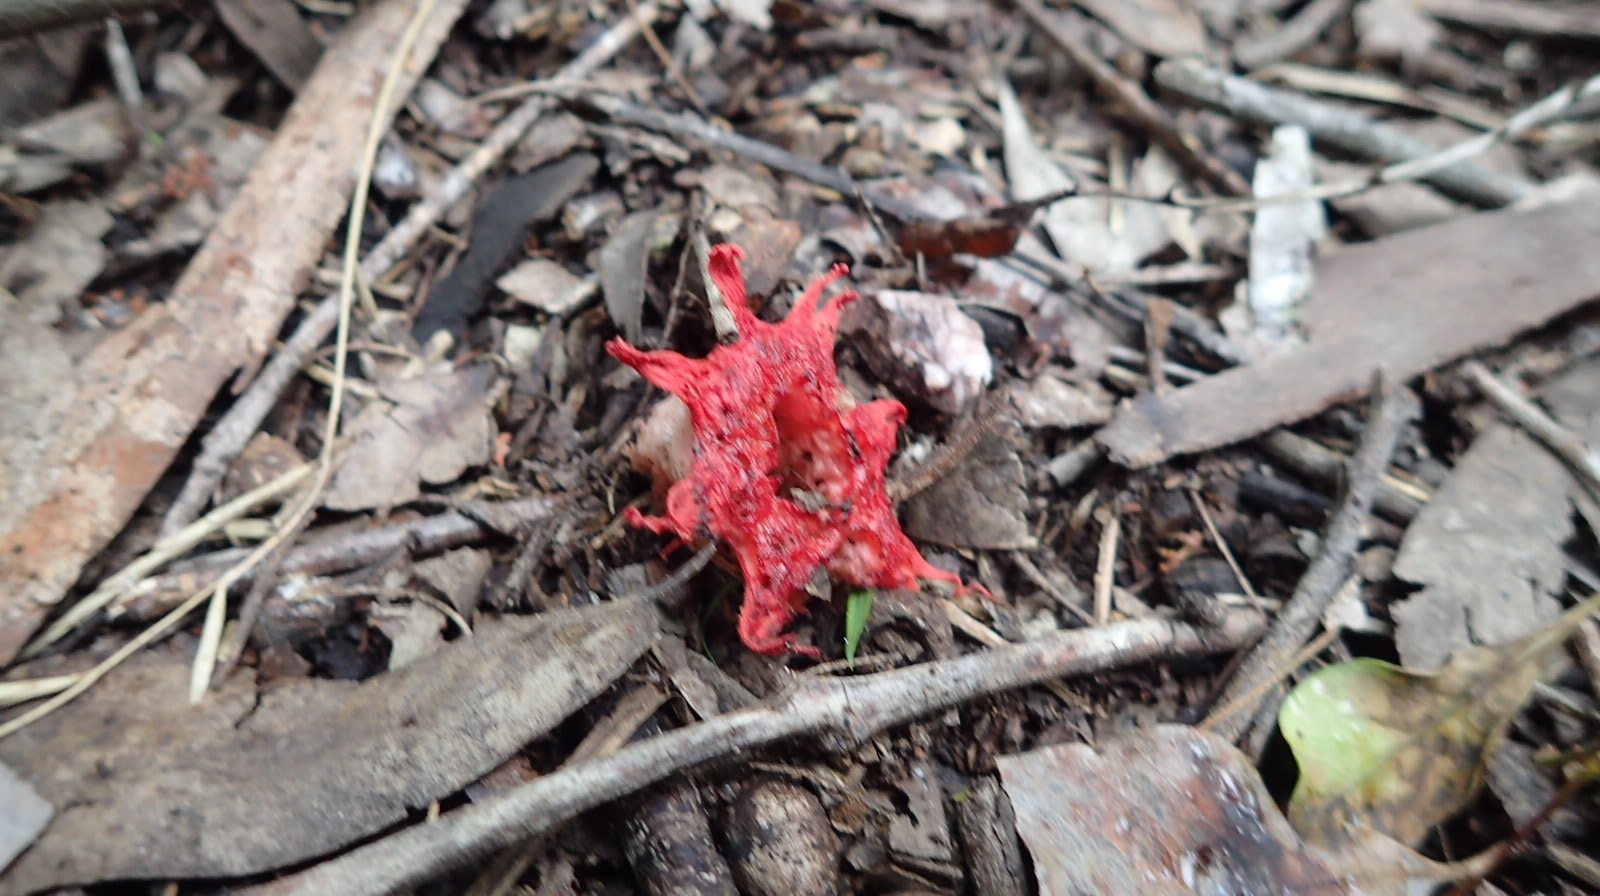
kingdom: Fungi
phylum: Basidiomycota
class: Agaricomycetes
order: Phallales
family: Phallaceae
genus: Aseroe
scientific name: Aseroe rubra
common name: Starfish fungus
